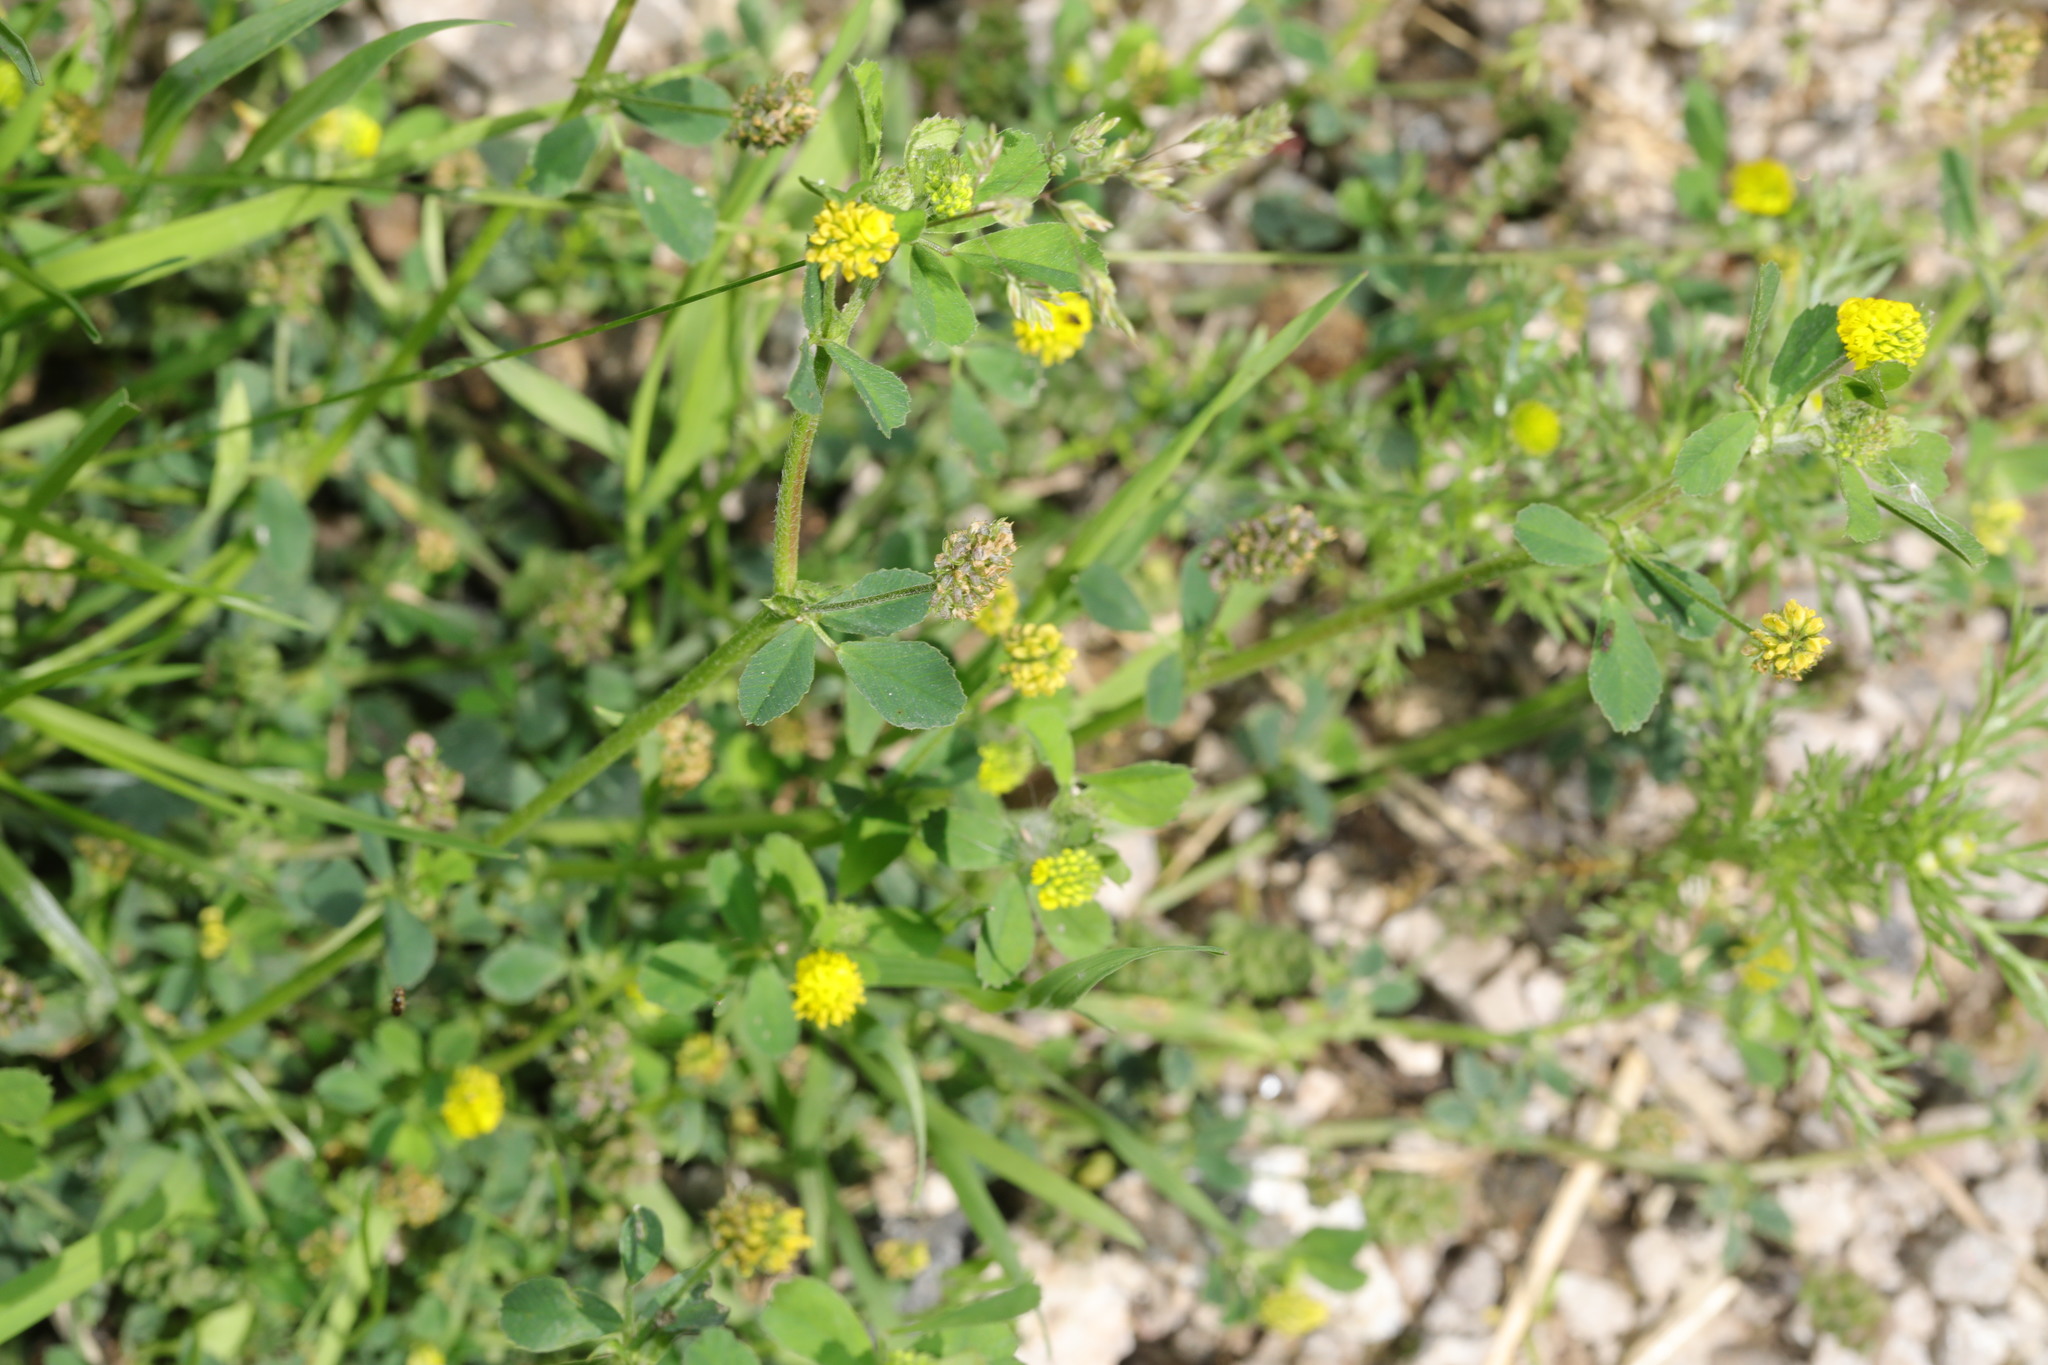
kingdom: Plantae
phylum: Tracheophyta
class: Magnoliopsida
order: Fabales
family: Fabaceae
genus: Medicago
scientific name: Medicago lupulina
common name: Black medick
